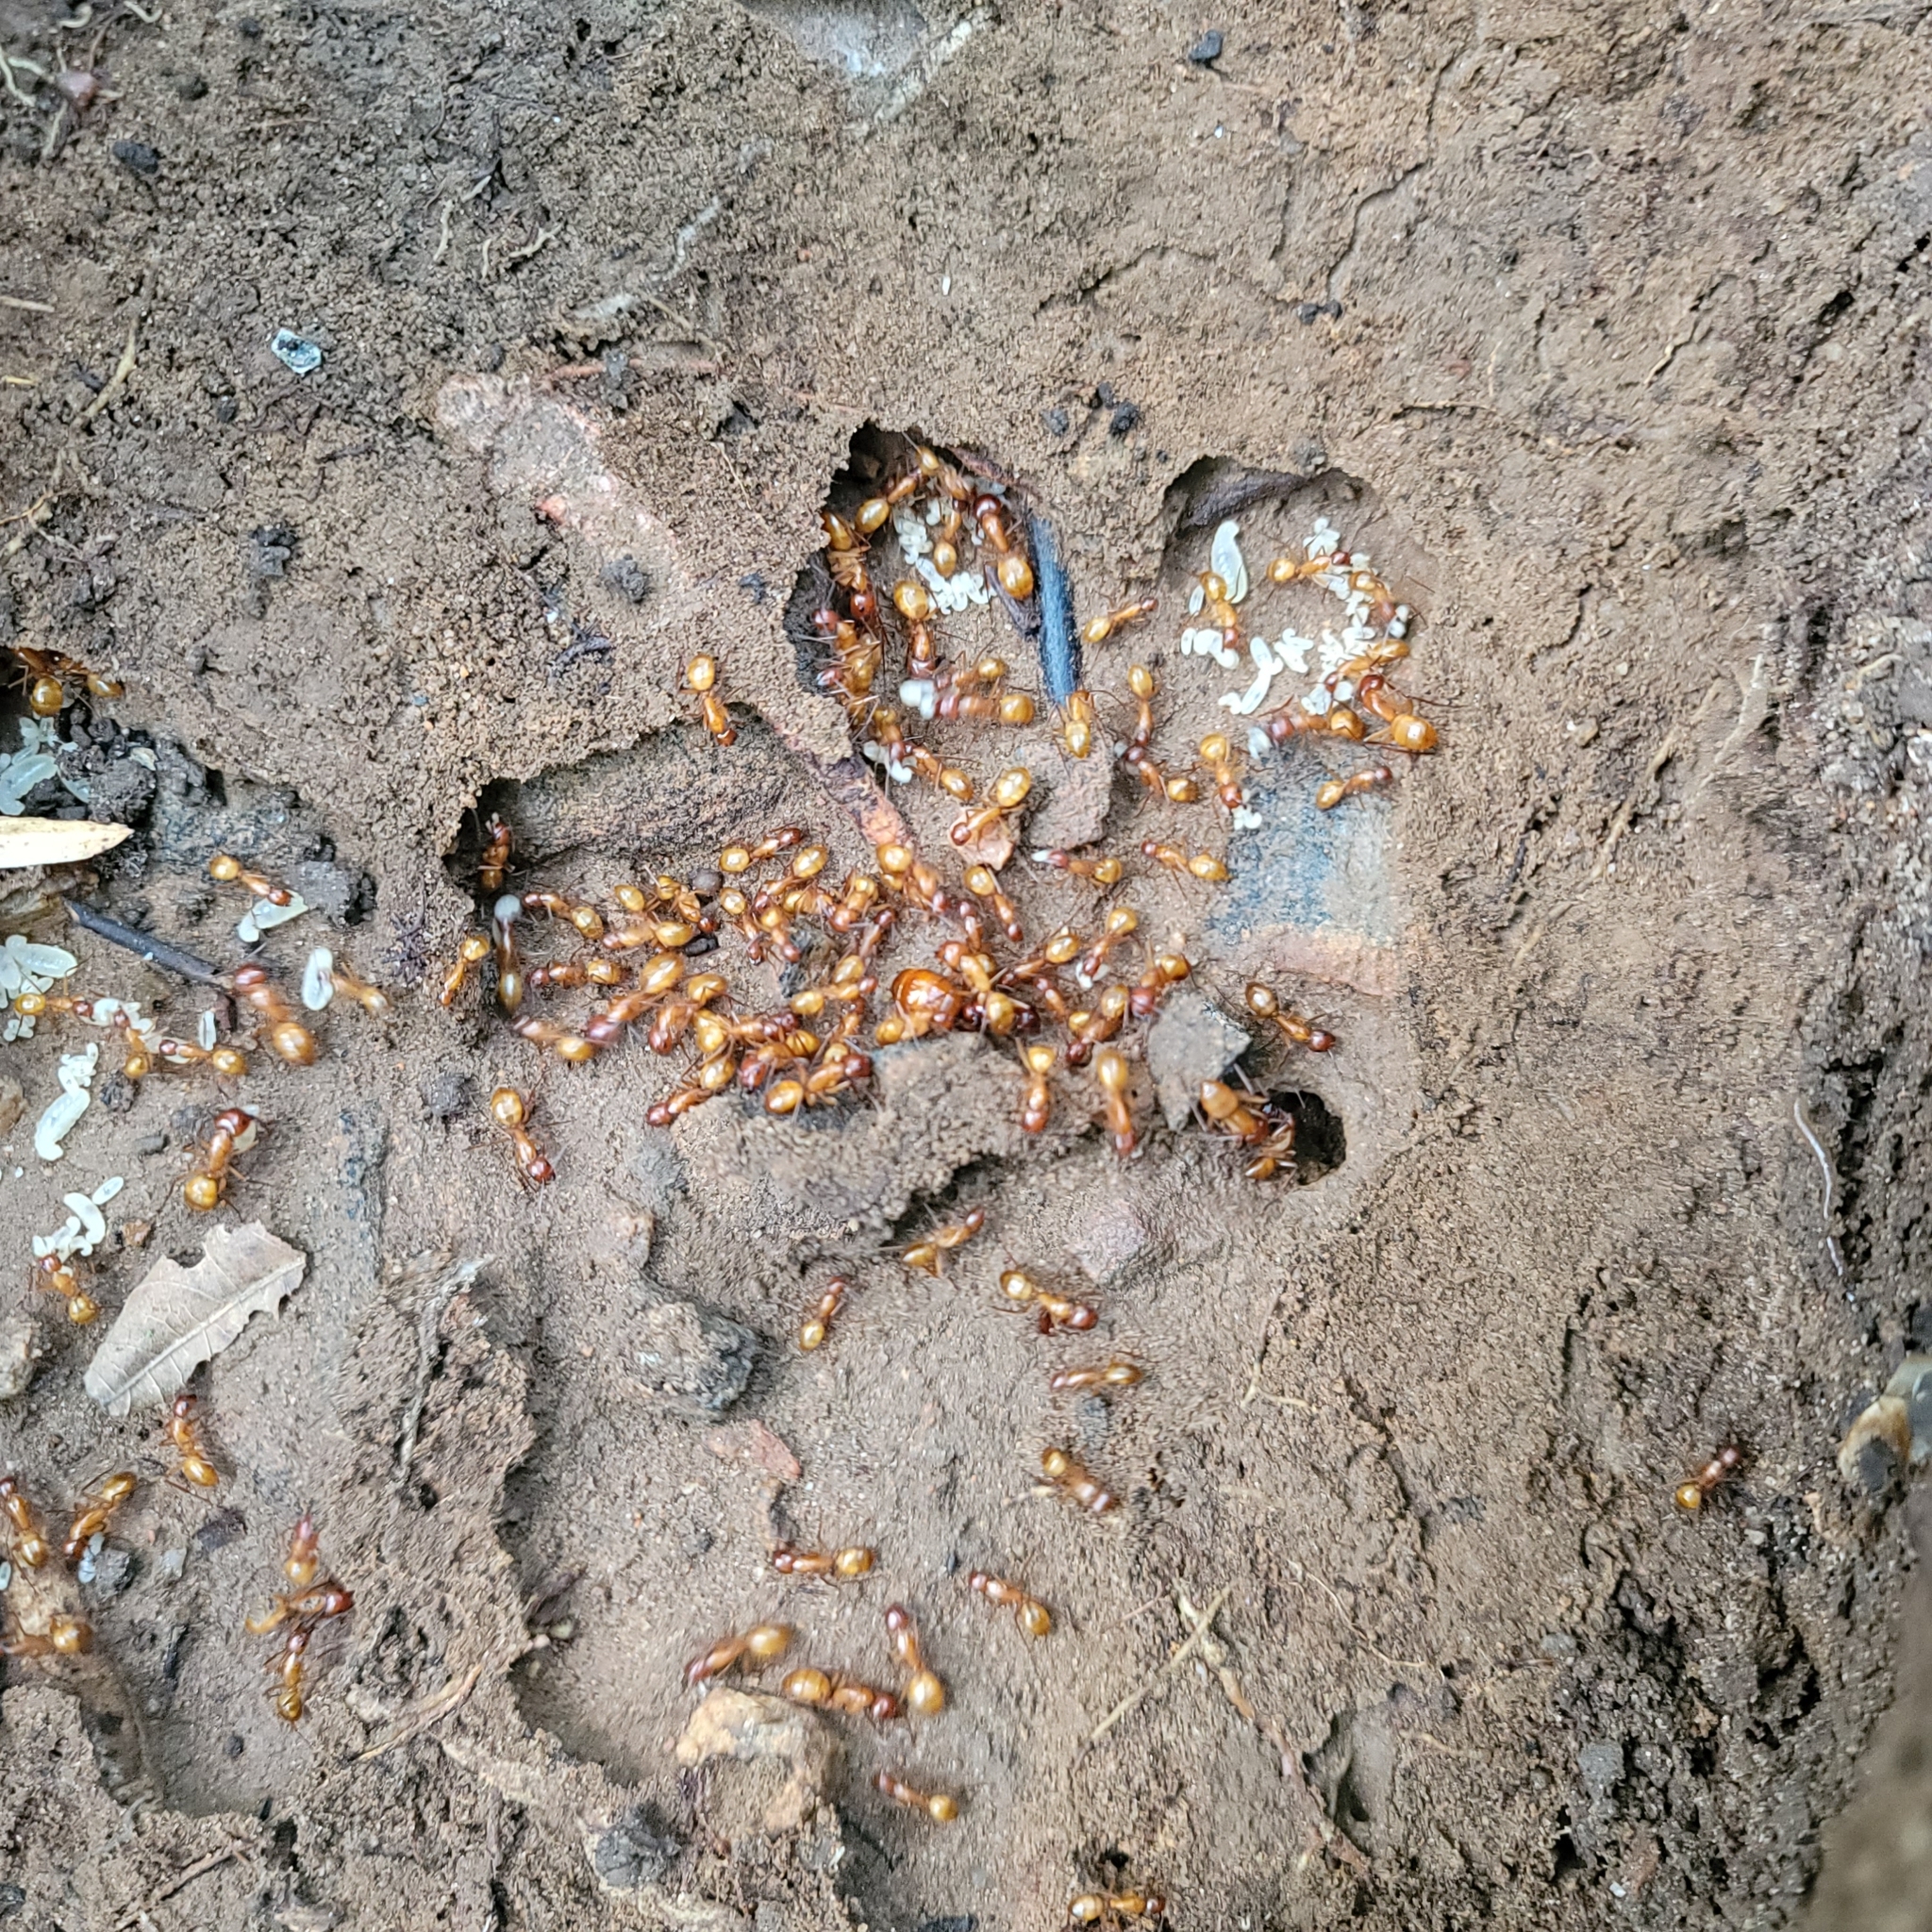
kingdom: Animalia
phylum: Arthropoda
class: Insecta
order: Hymenoptera
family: Formicidae
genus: Camponotus
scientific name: Camponotus castaneus
